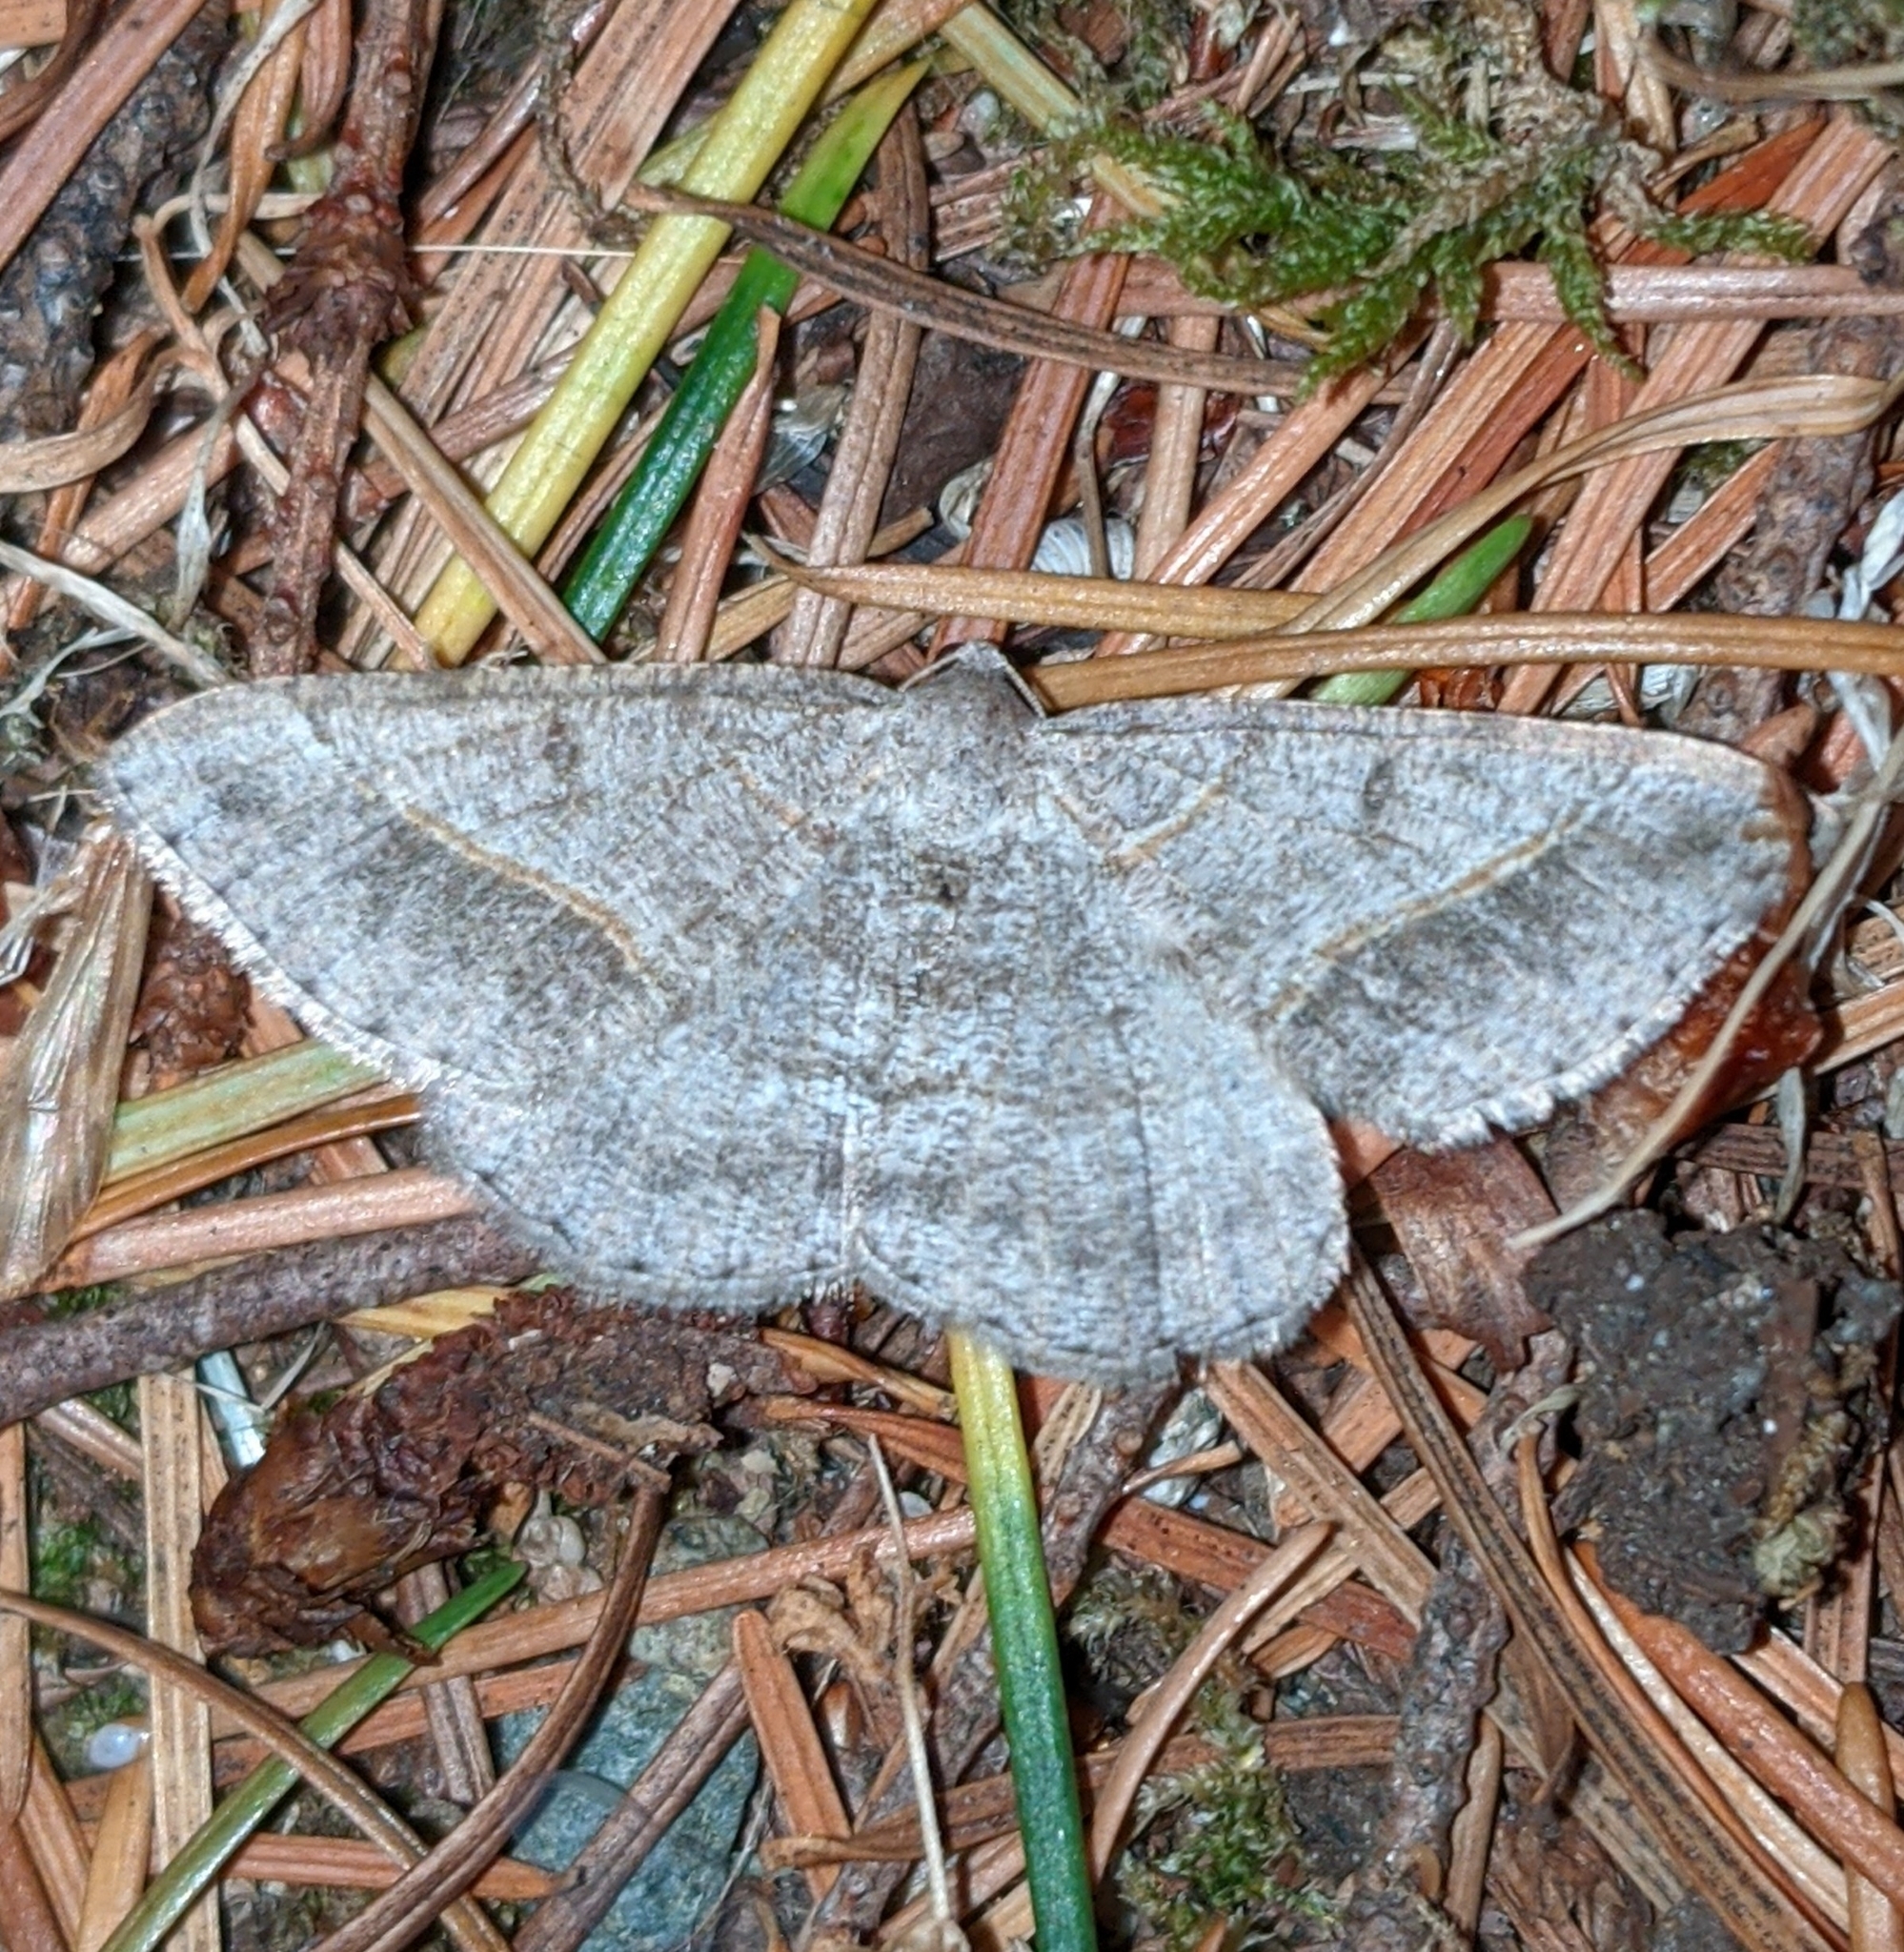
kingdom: Animalia
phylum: Arthropoda
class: Insecta
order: Lepidoptera
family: Geometridae
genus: Digrammia
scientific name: Digrammia neptaria
